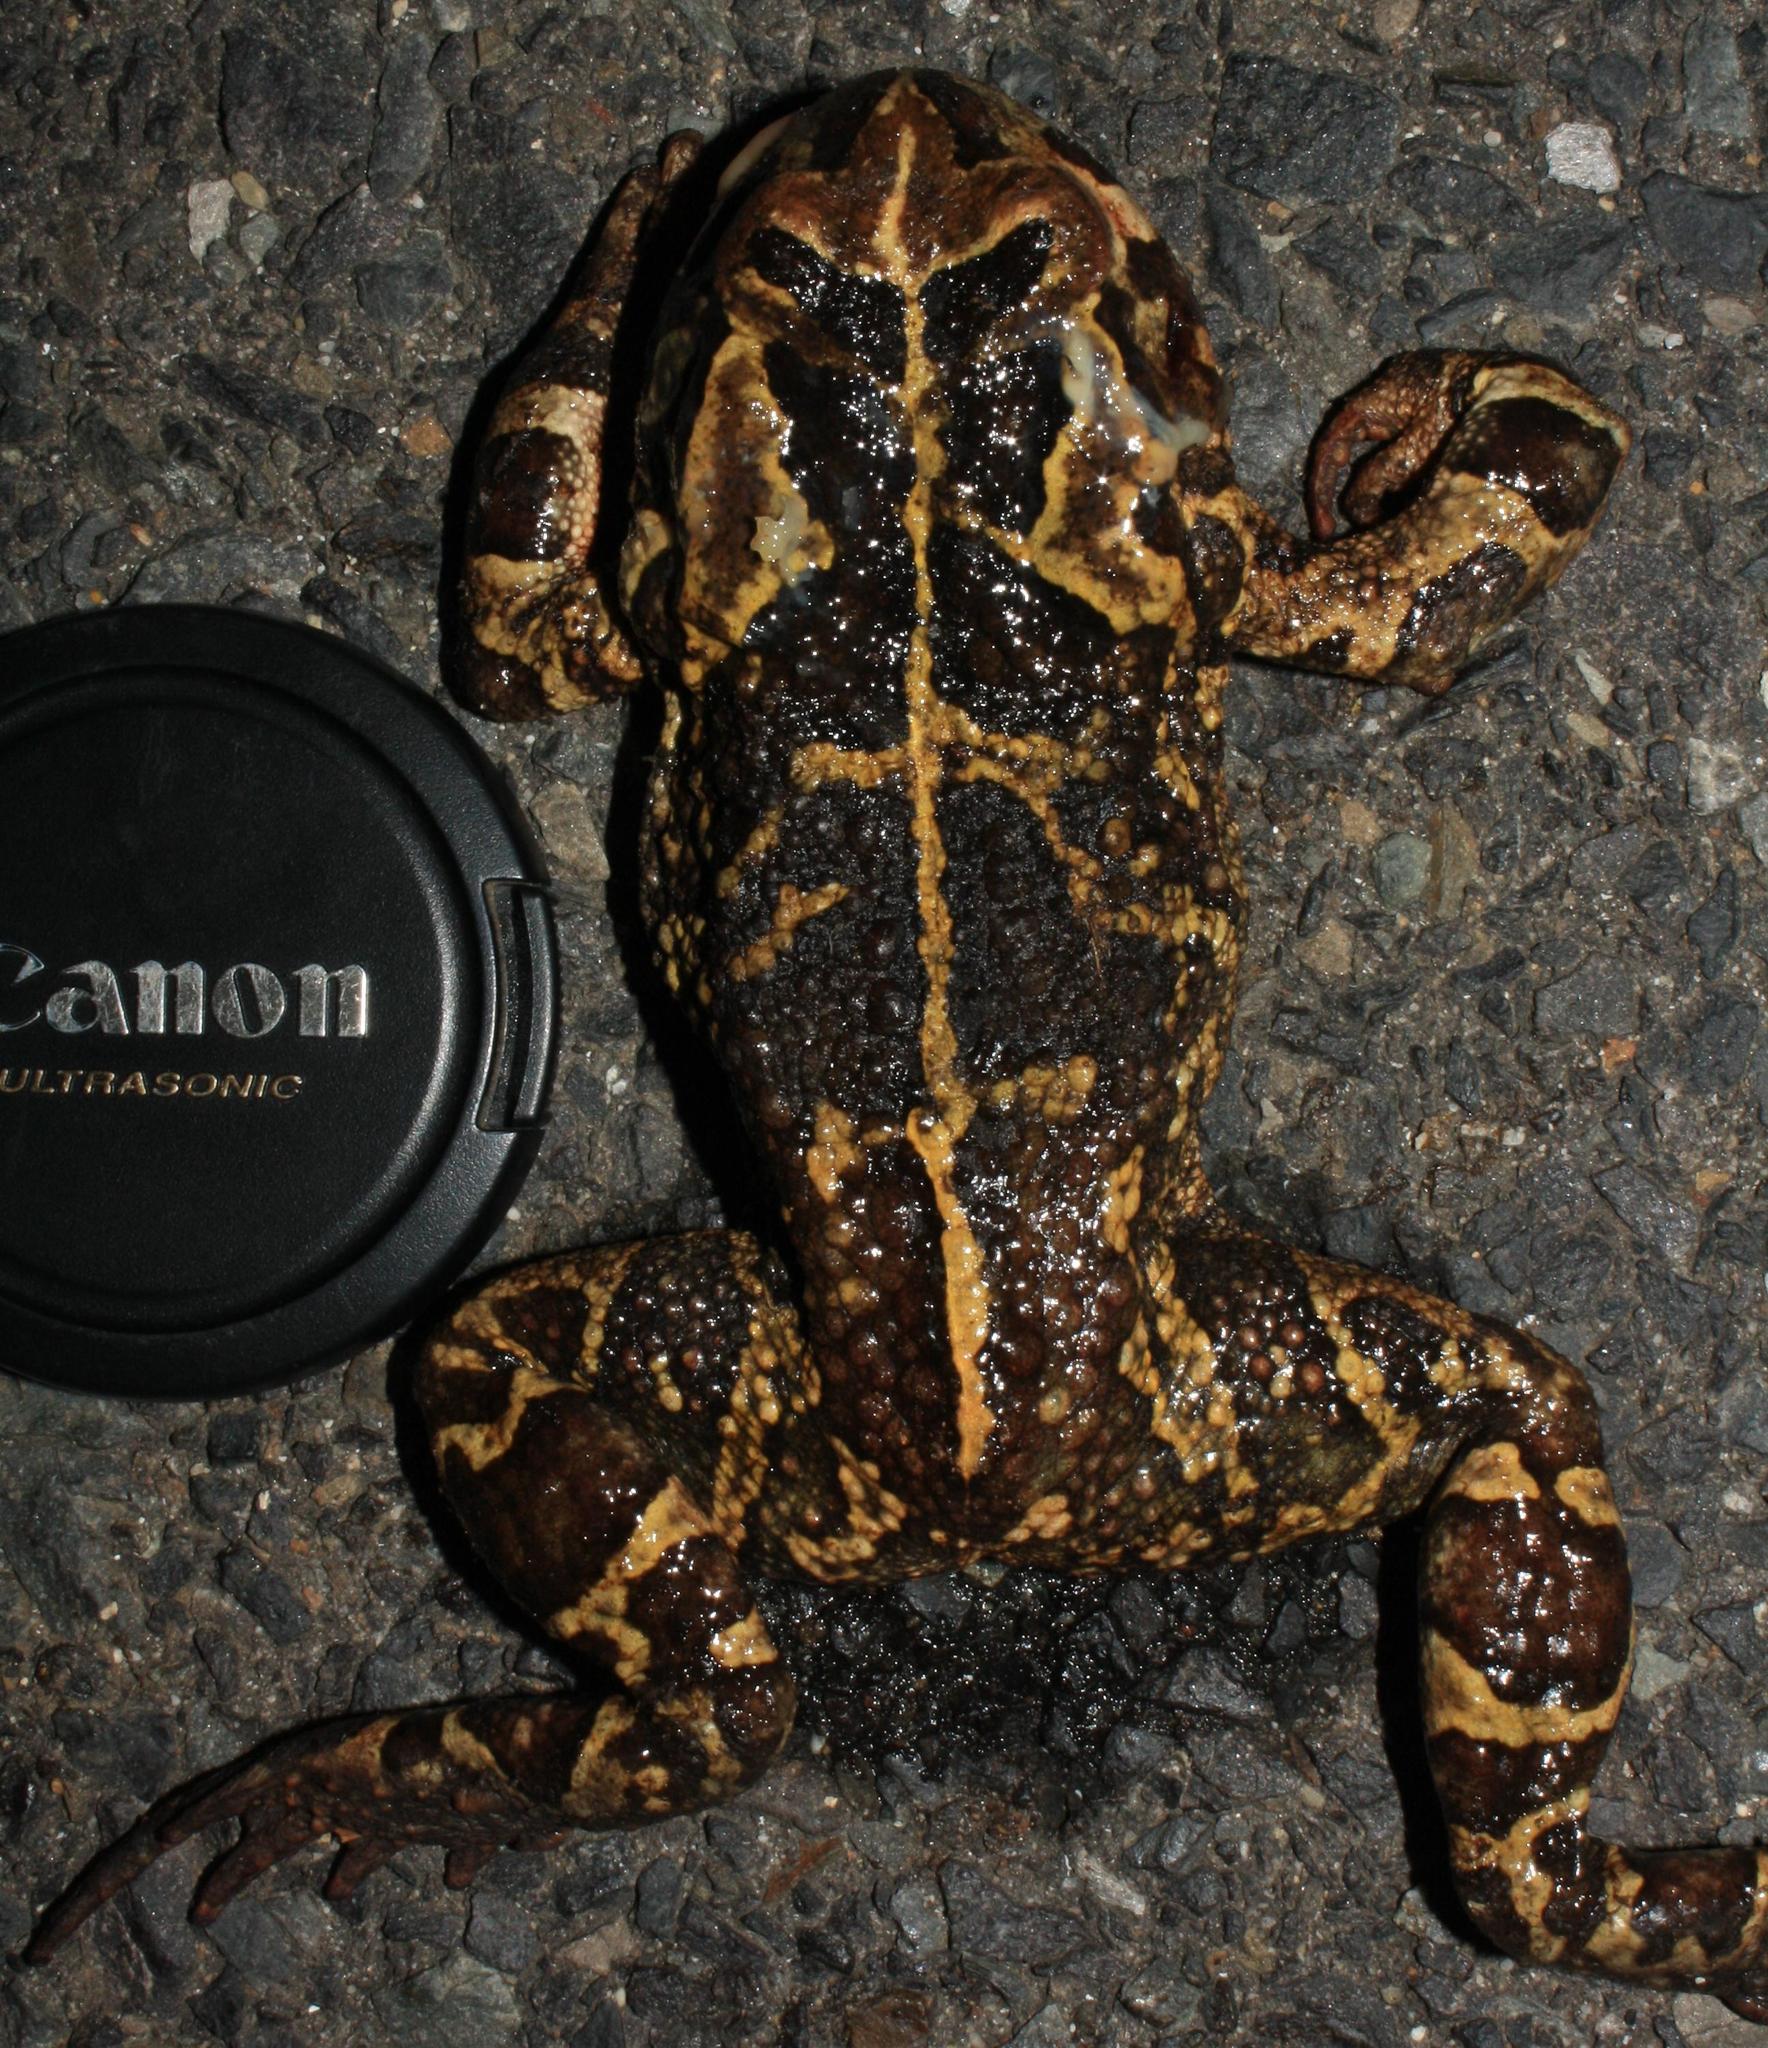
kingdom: Animalia
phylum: Chordata
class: Amphibia
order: Anura
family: Bufonidae
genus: Sclerophrys
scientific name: Sclerophrys pantherina
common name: Panther toad
